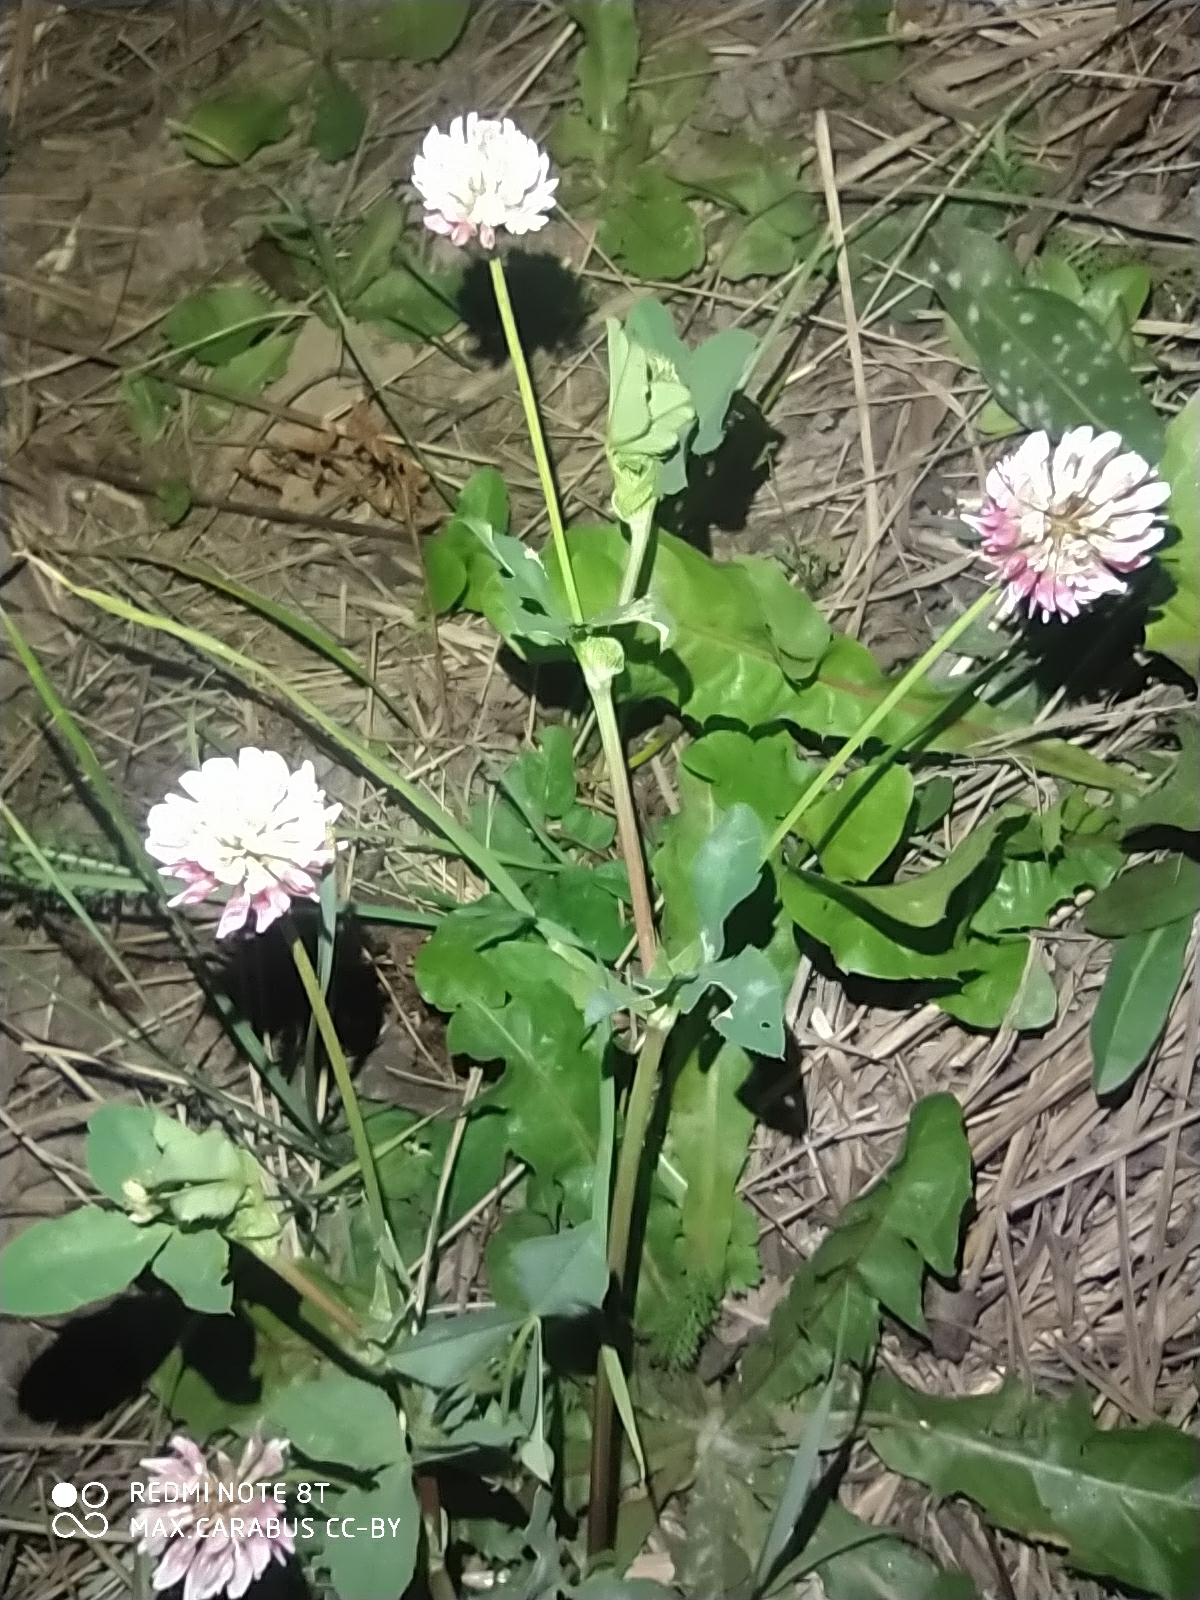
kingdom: Plantae
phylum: Tracheophyta
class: Magnoliopsida
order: Fabales
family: Fabaceae
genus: Trifolium
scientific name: Trifolium hybridum
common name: Alsike clover
